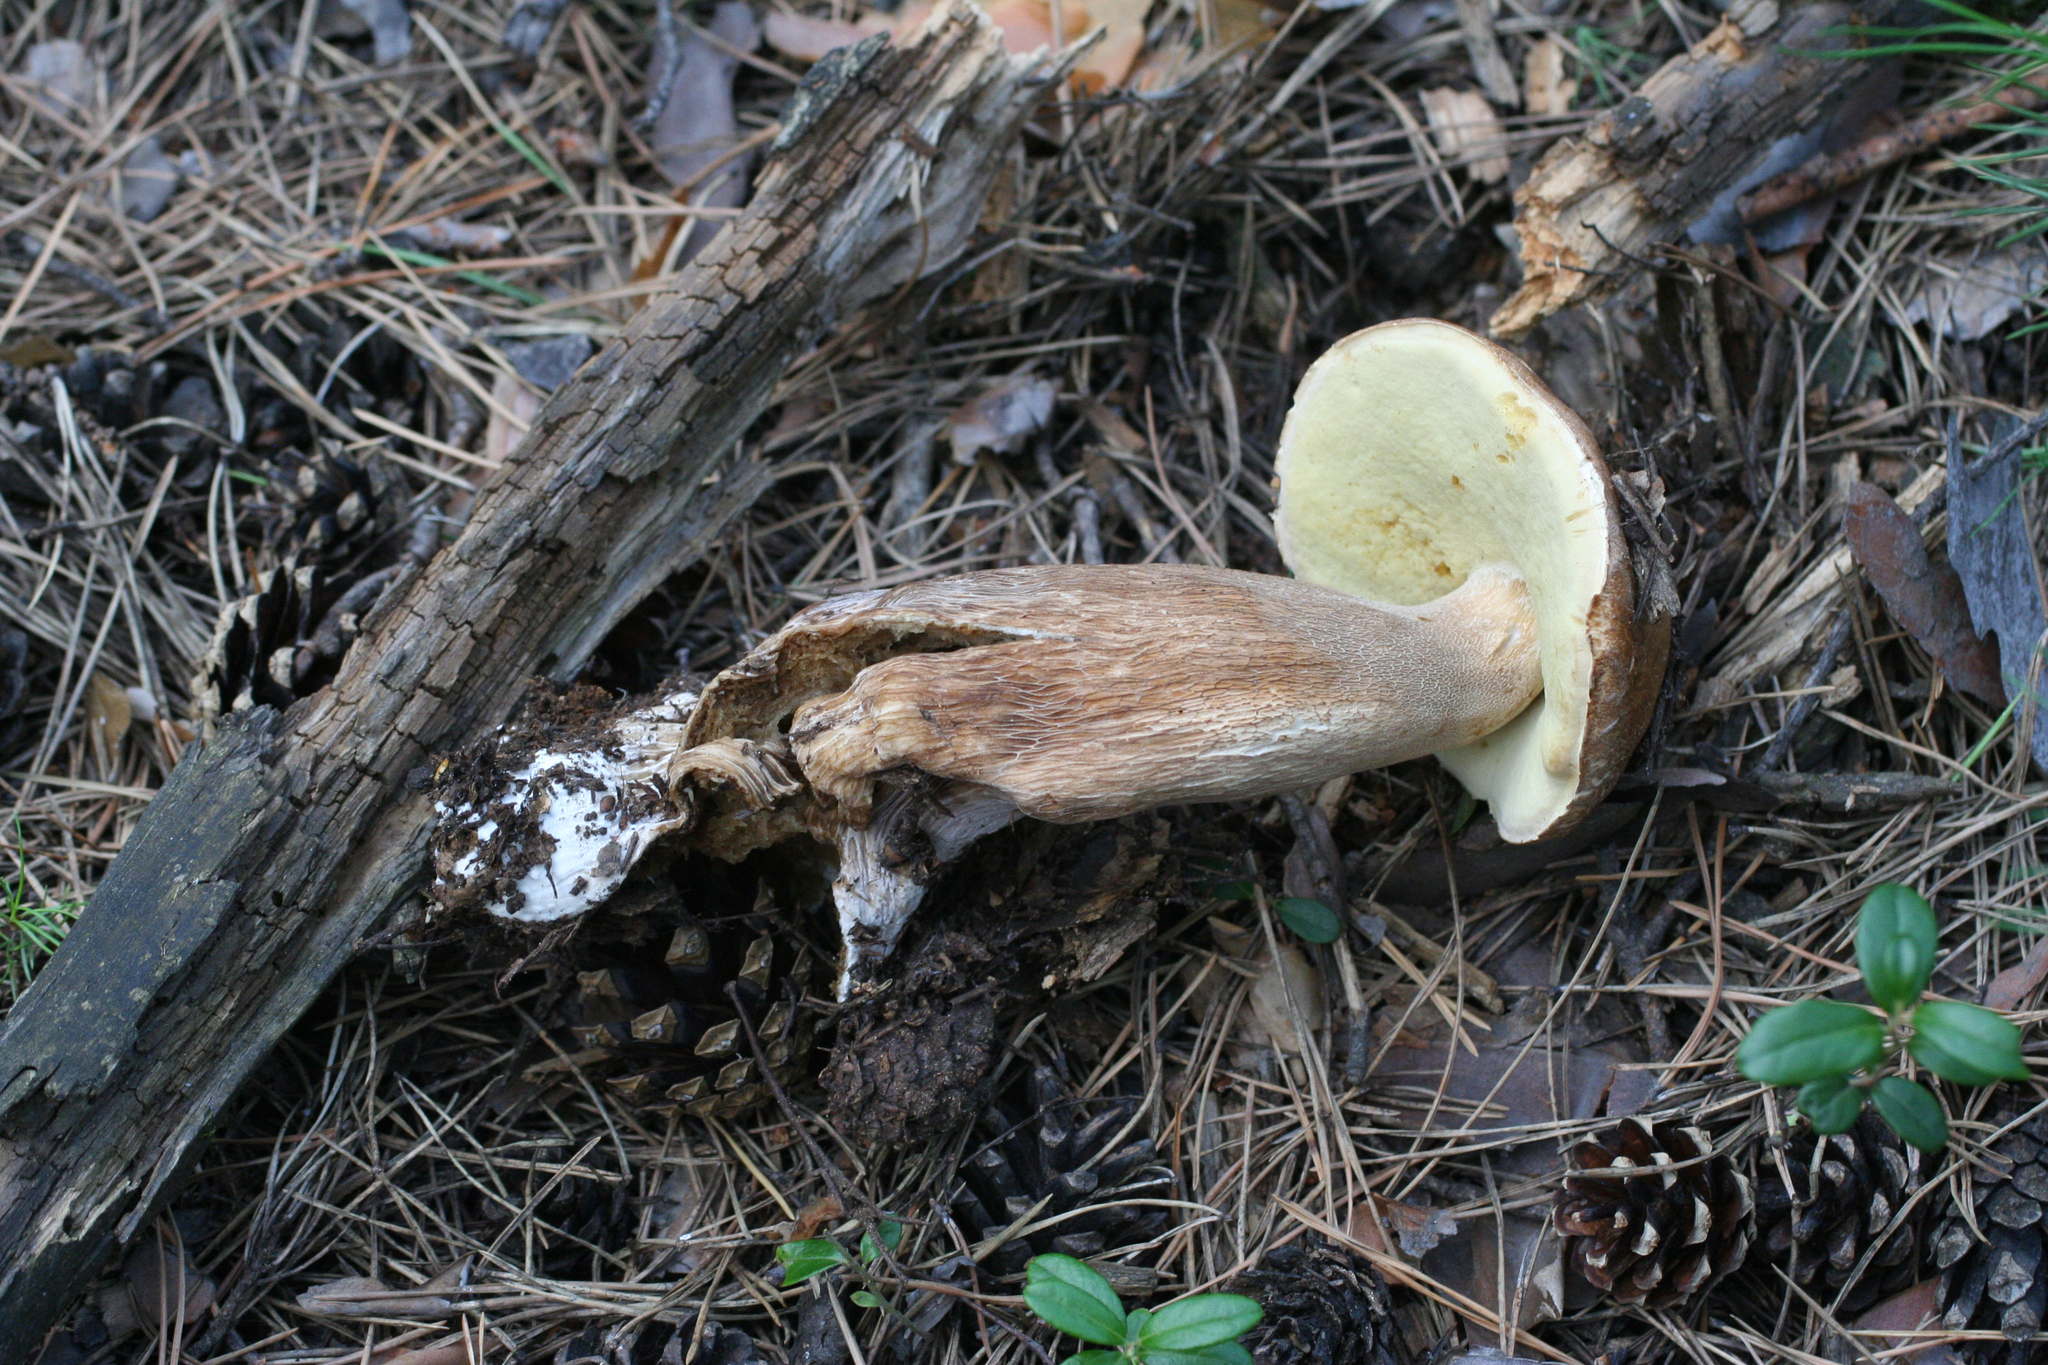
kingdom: Fungi
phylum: Basidiomycota
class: Agaricomycetes
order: Boletales
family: Boletaceae
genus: Boletus
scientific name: Boletus edulis
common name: Cep
